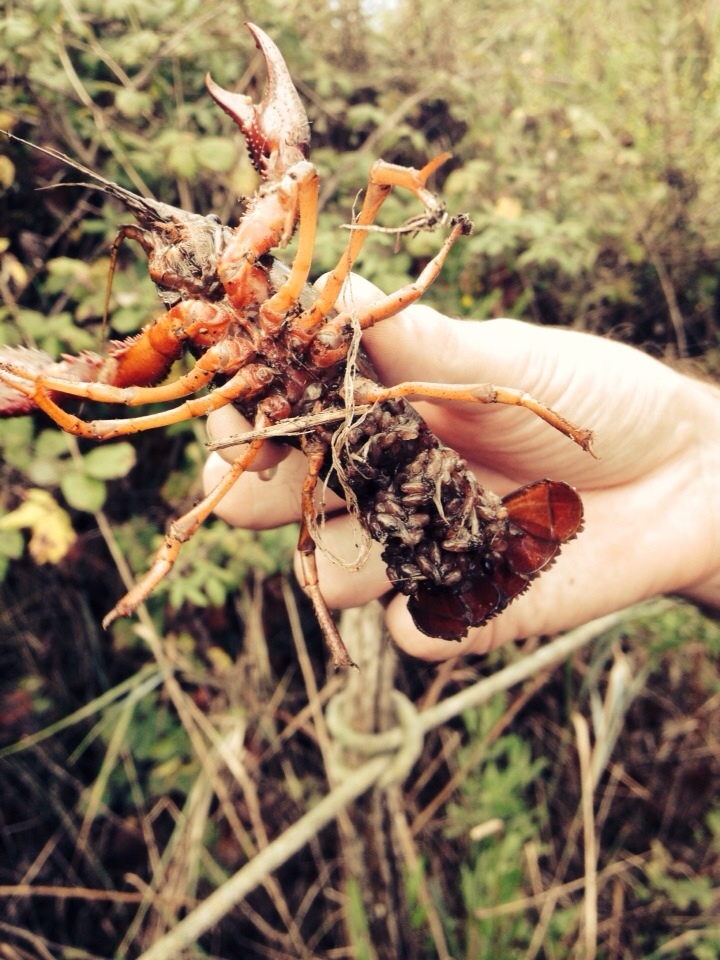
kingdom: Animalia
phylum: Arthropoda
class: Malacostraca
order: Decapoda
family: Cambaridae
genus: Procambarus
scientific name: Procambarus clarkii
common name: Red swamp crayfish
